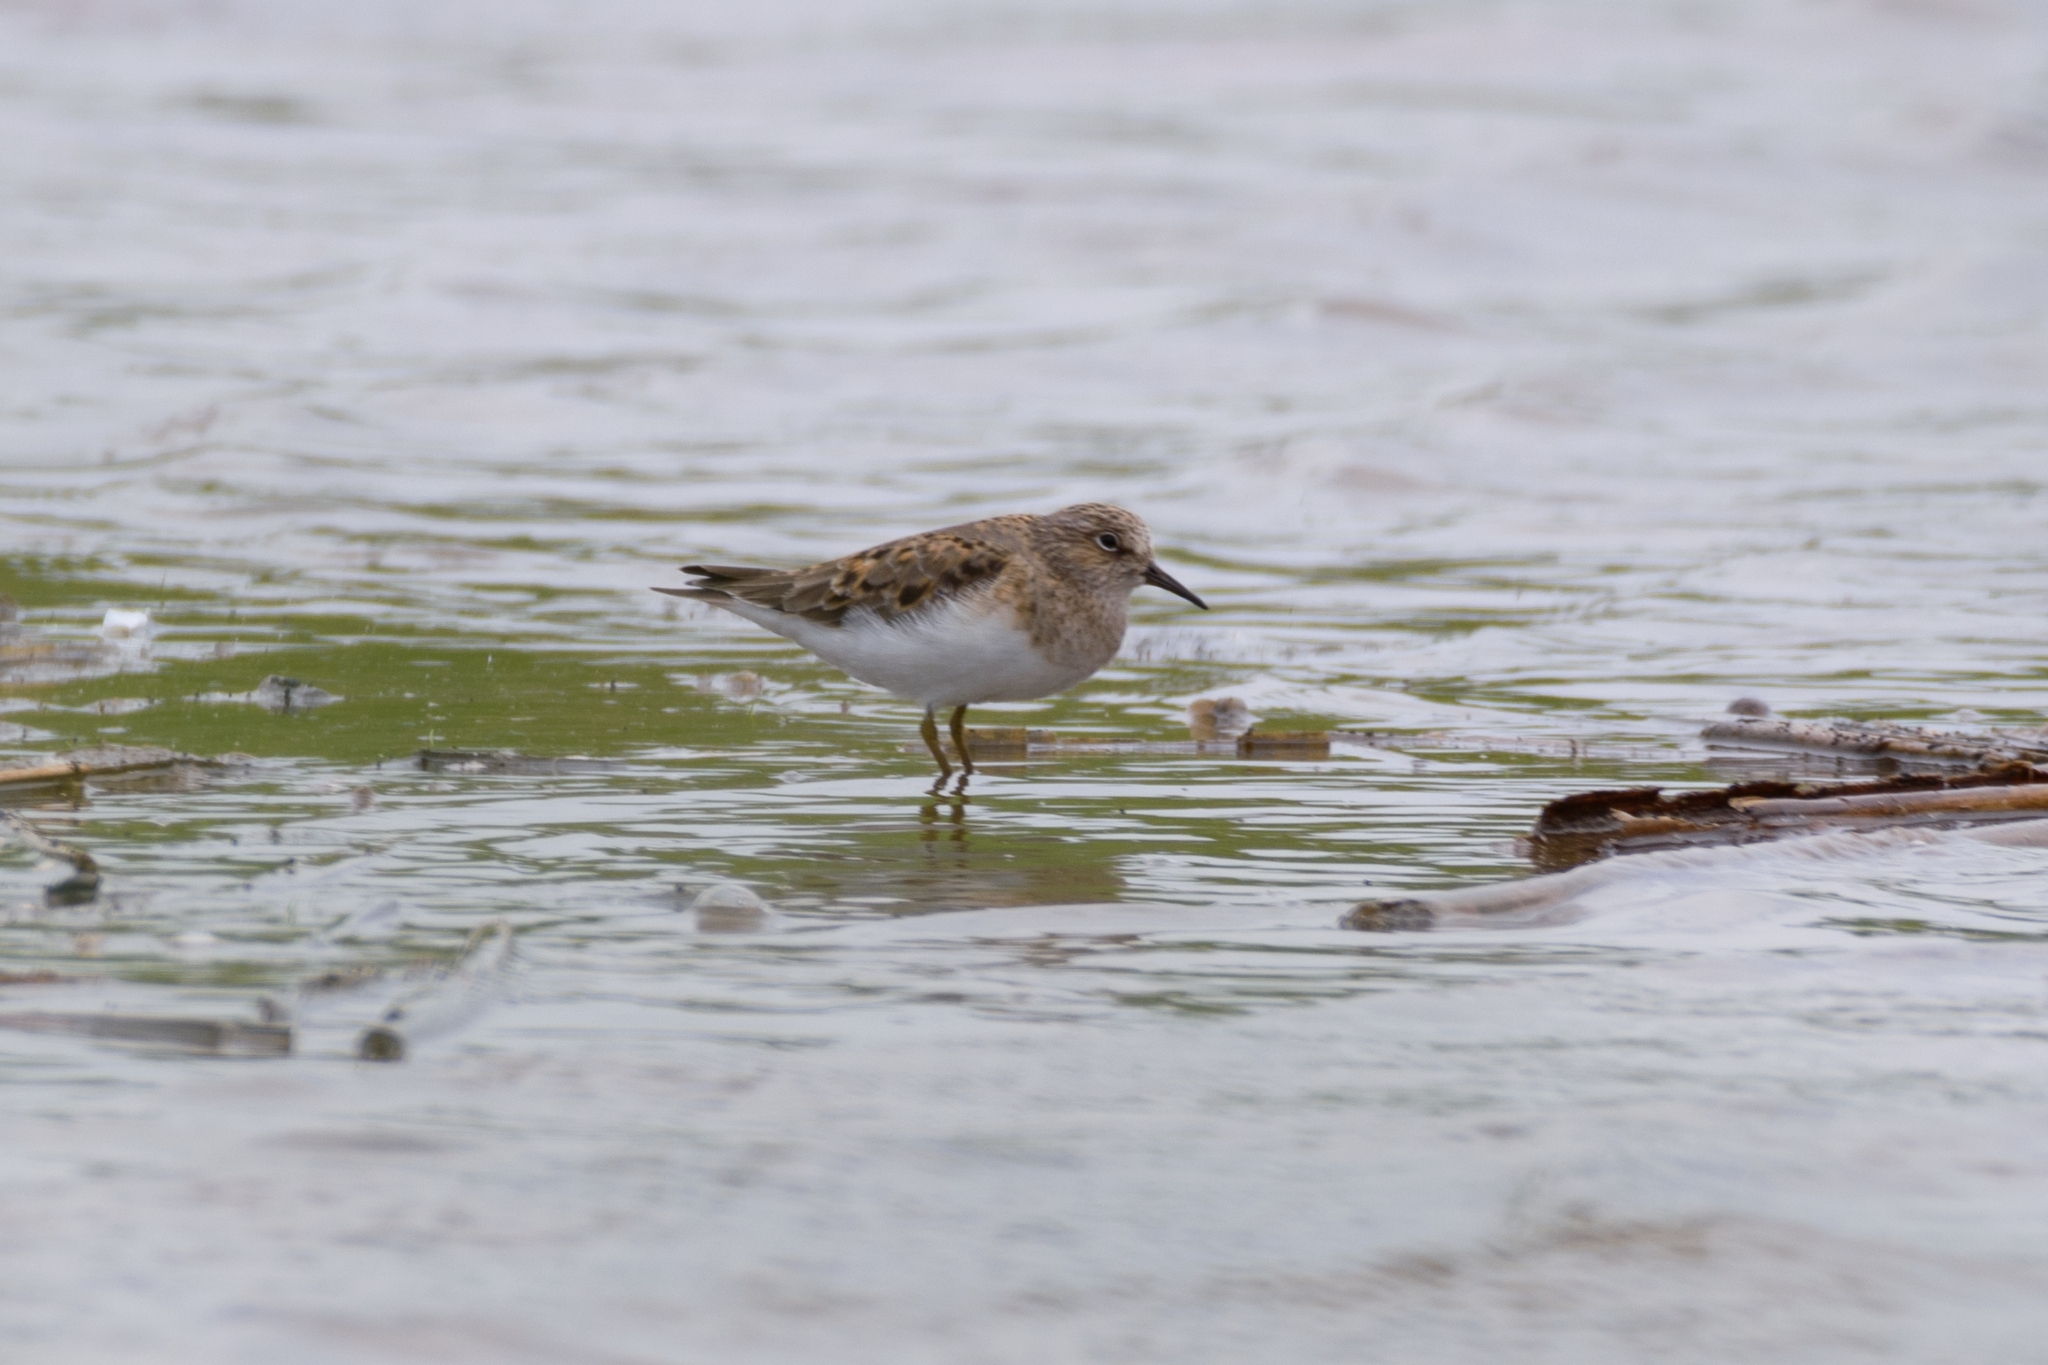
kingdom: Animalia
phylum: Chordata
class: Aves
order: Charadriiformes
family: Scolopacidae
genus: Calidris
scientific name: Calidris temminckii
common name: Temminck's stint
